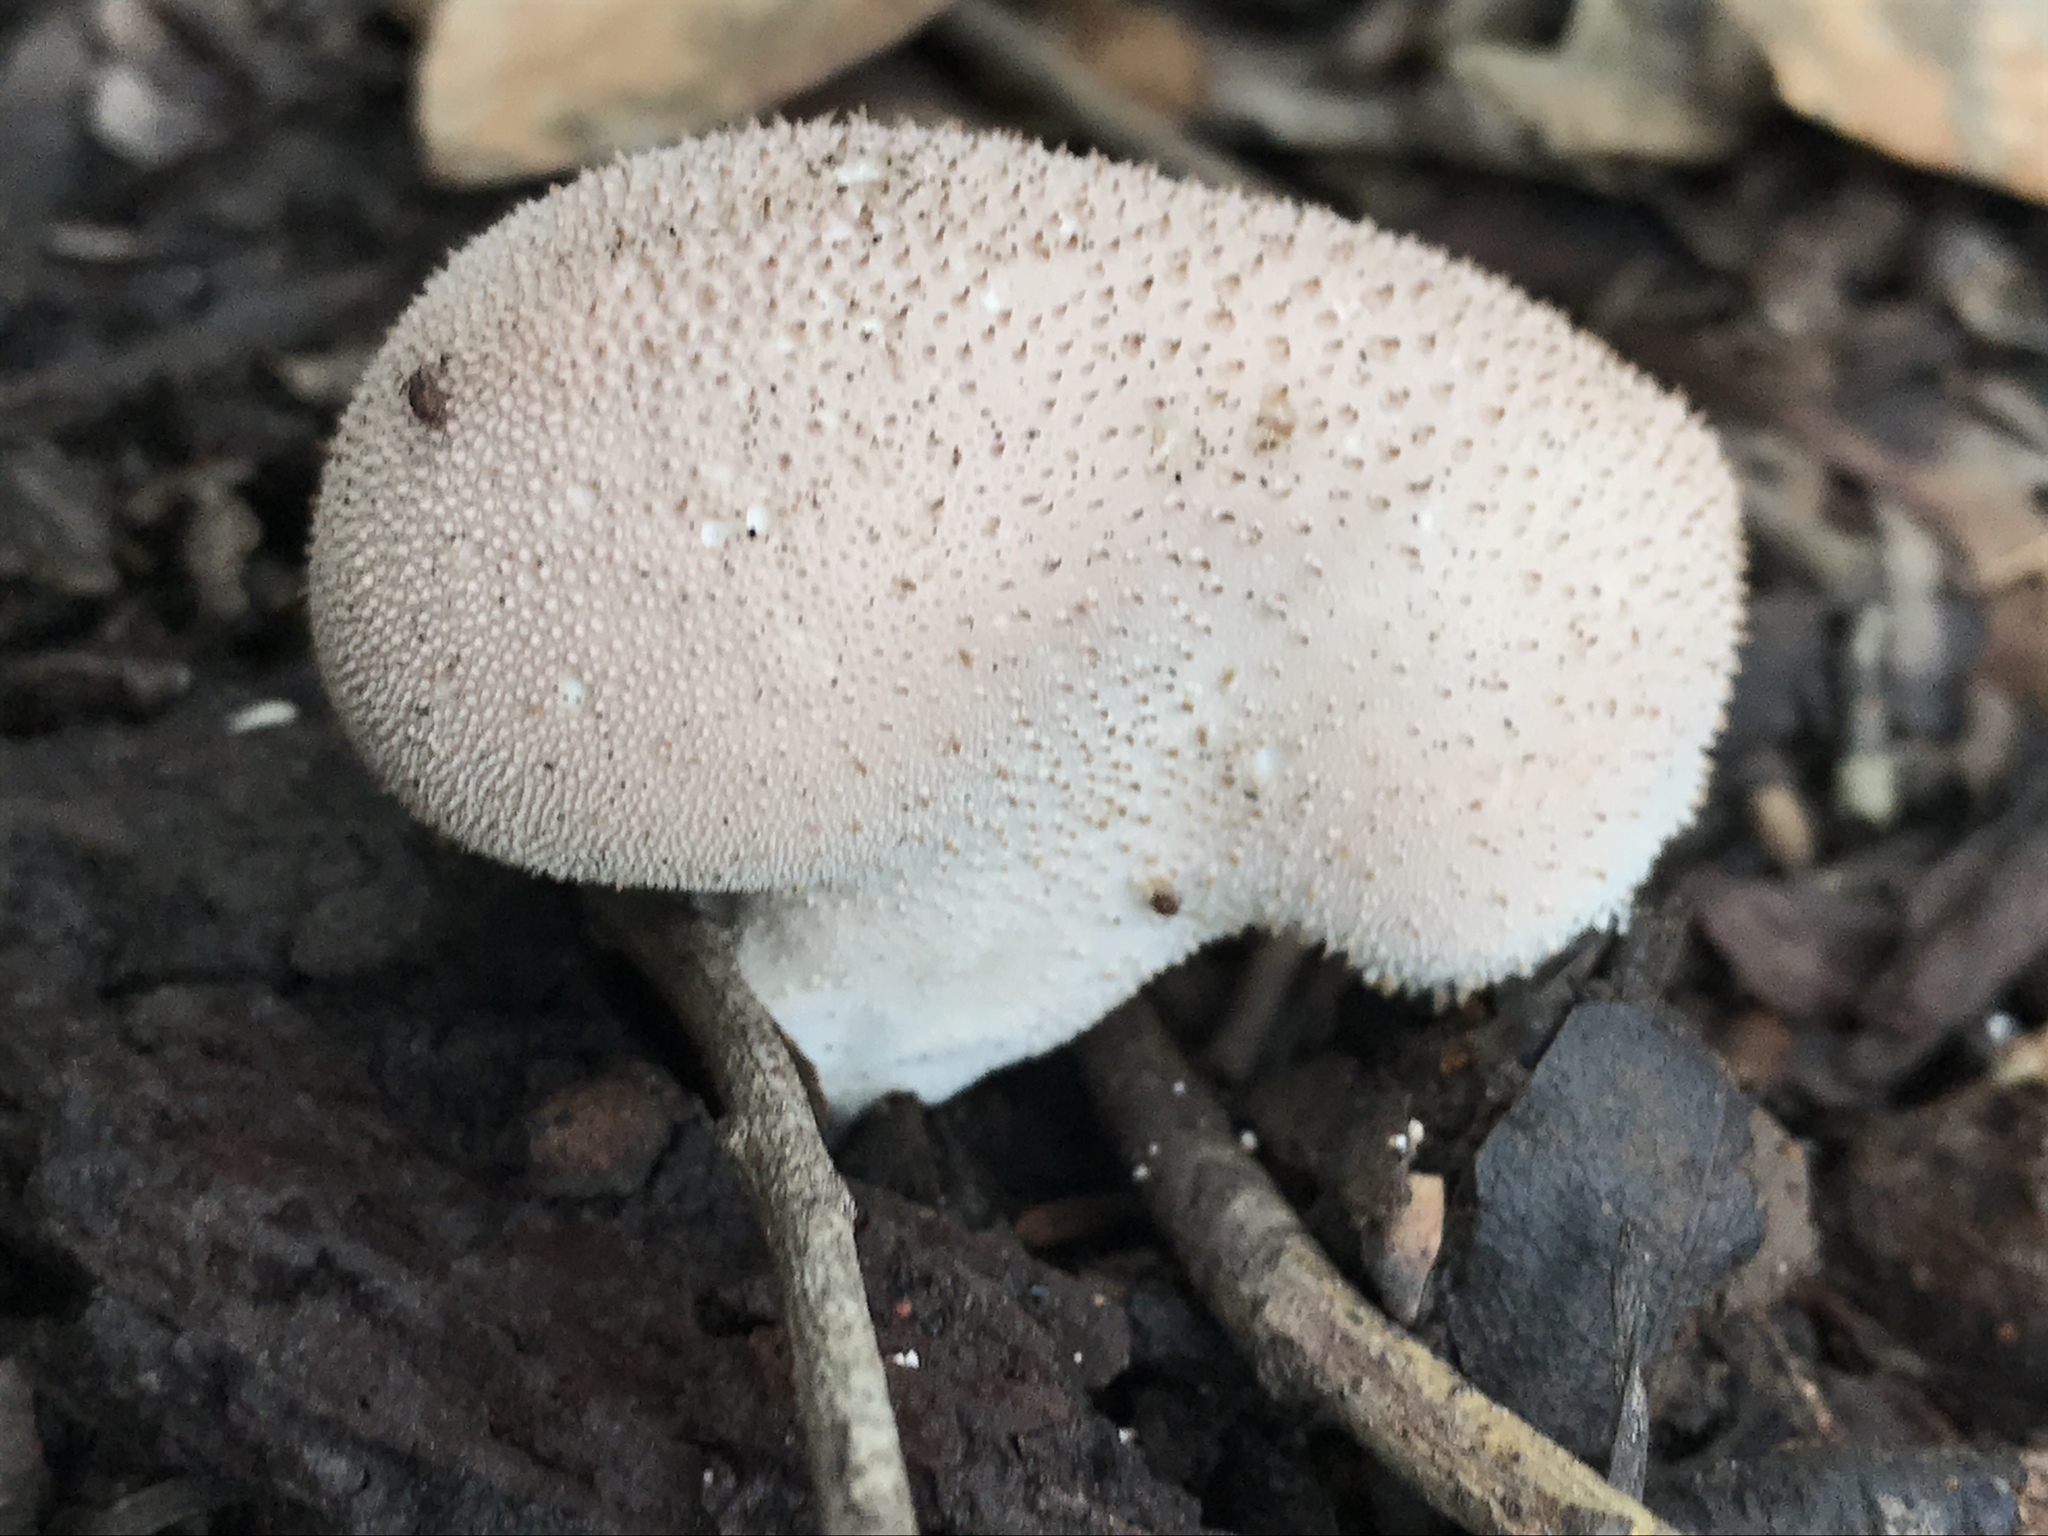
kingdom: Fungi
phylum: Basidiomycota
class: Agaricomycetes
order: Agaricales
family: Lycoperdaceae
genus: Lycoperdon
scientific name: Lycoperdon perlatum
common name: Common puffball
